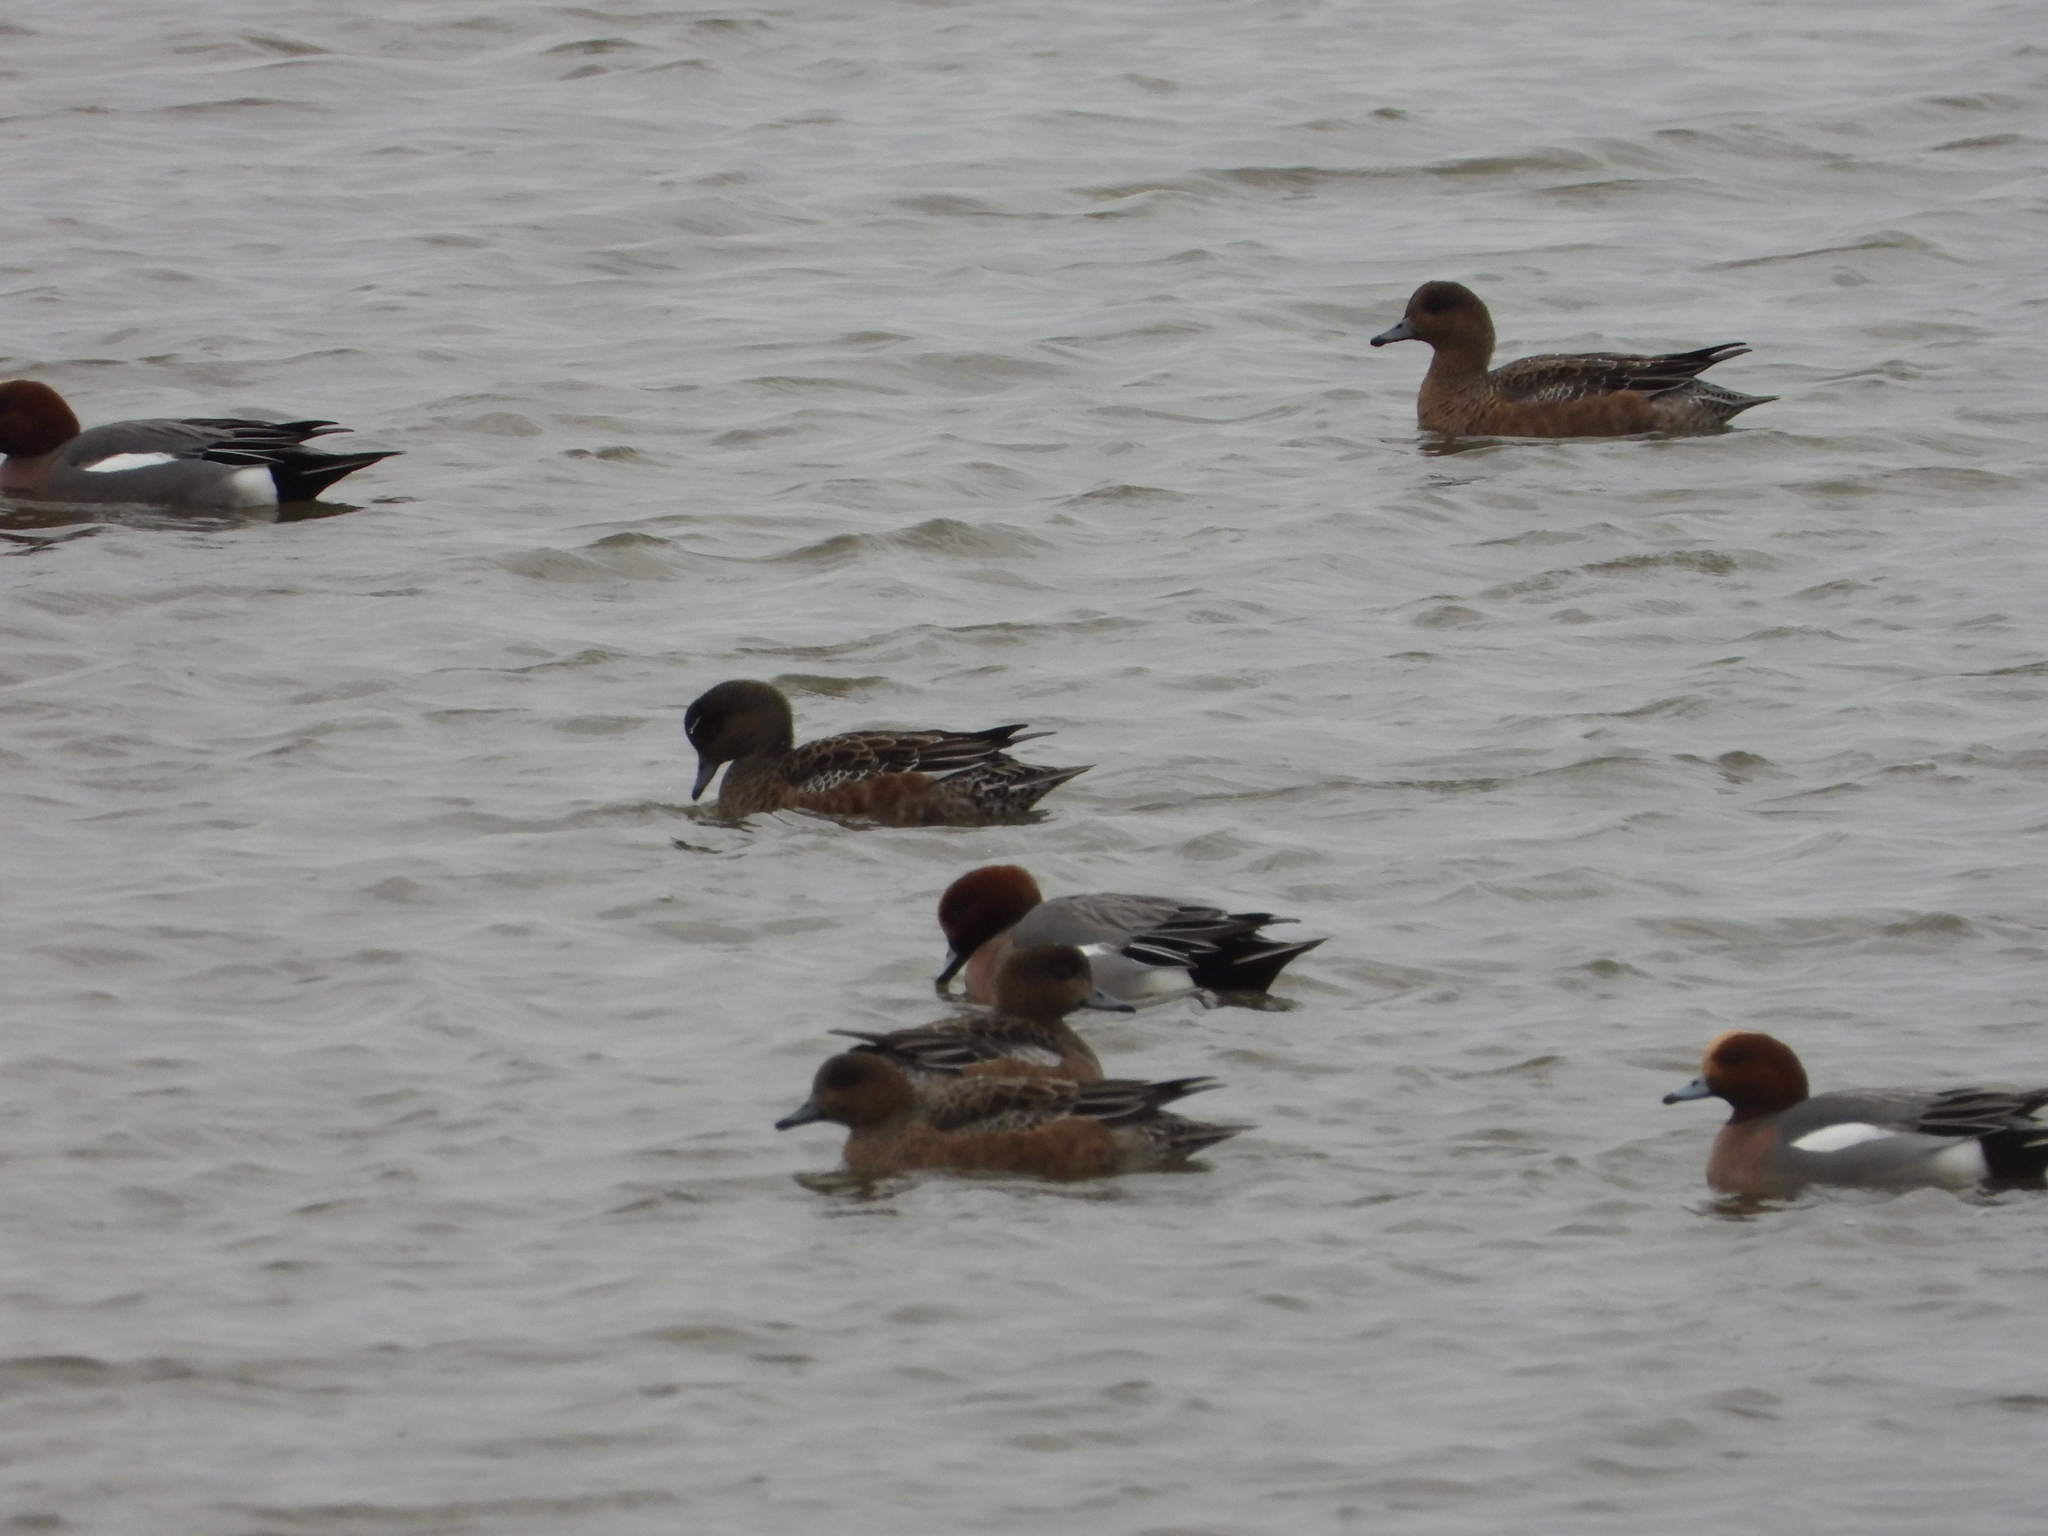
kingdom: Animalia
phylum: Chordata
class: Aves
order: Anseriformes
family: Anatidae
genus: Mareca
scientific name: Mareca penelope
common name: Eurasian wigeon
